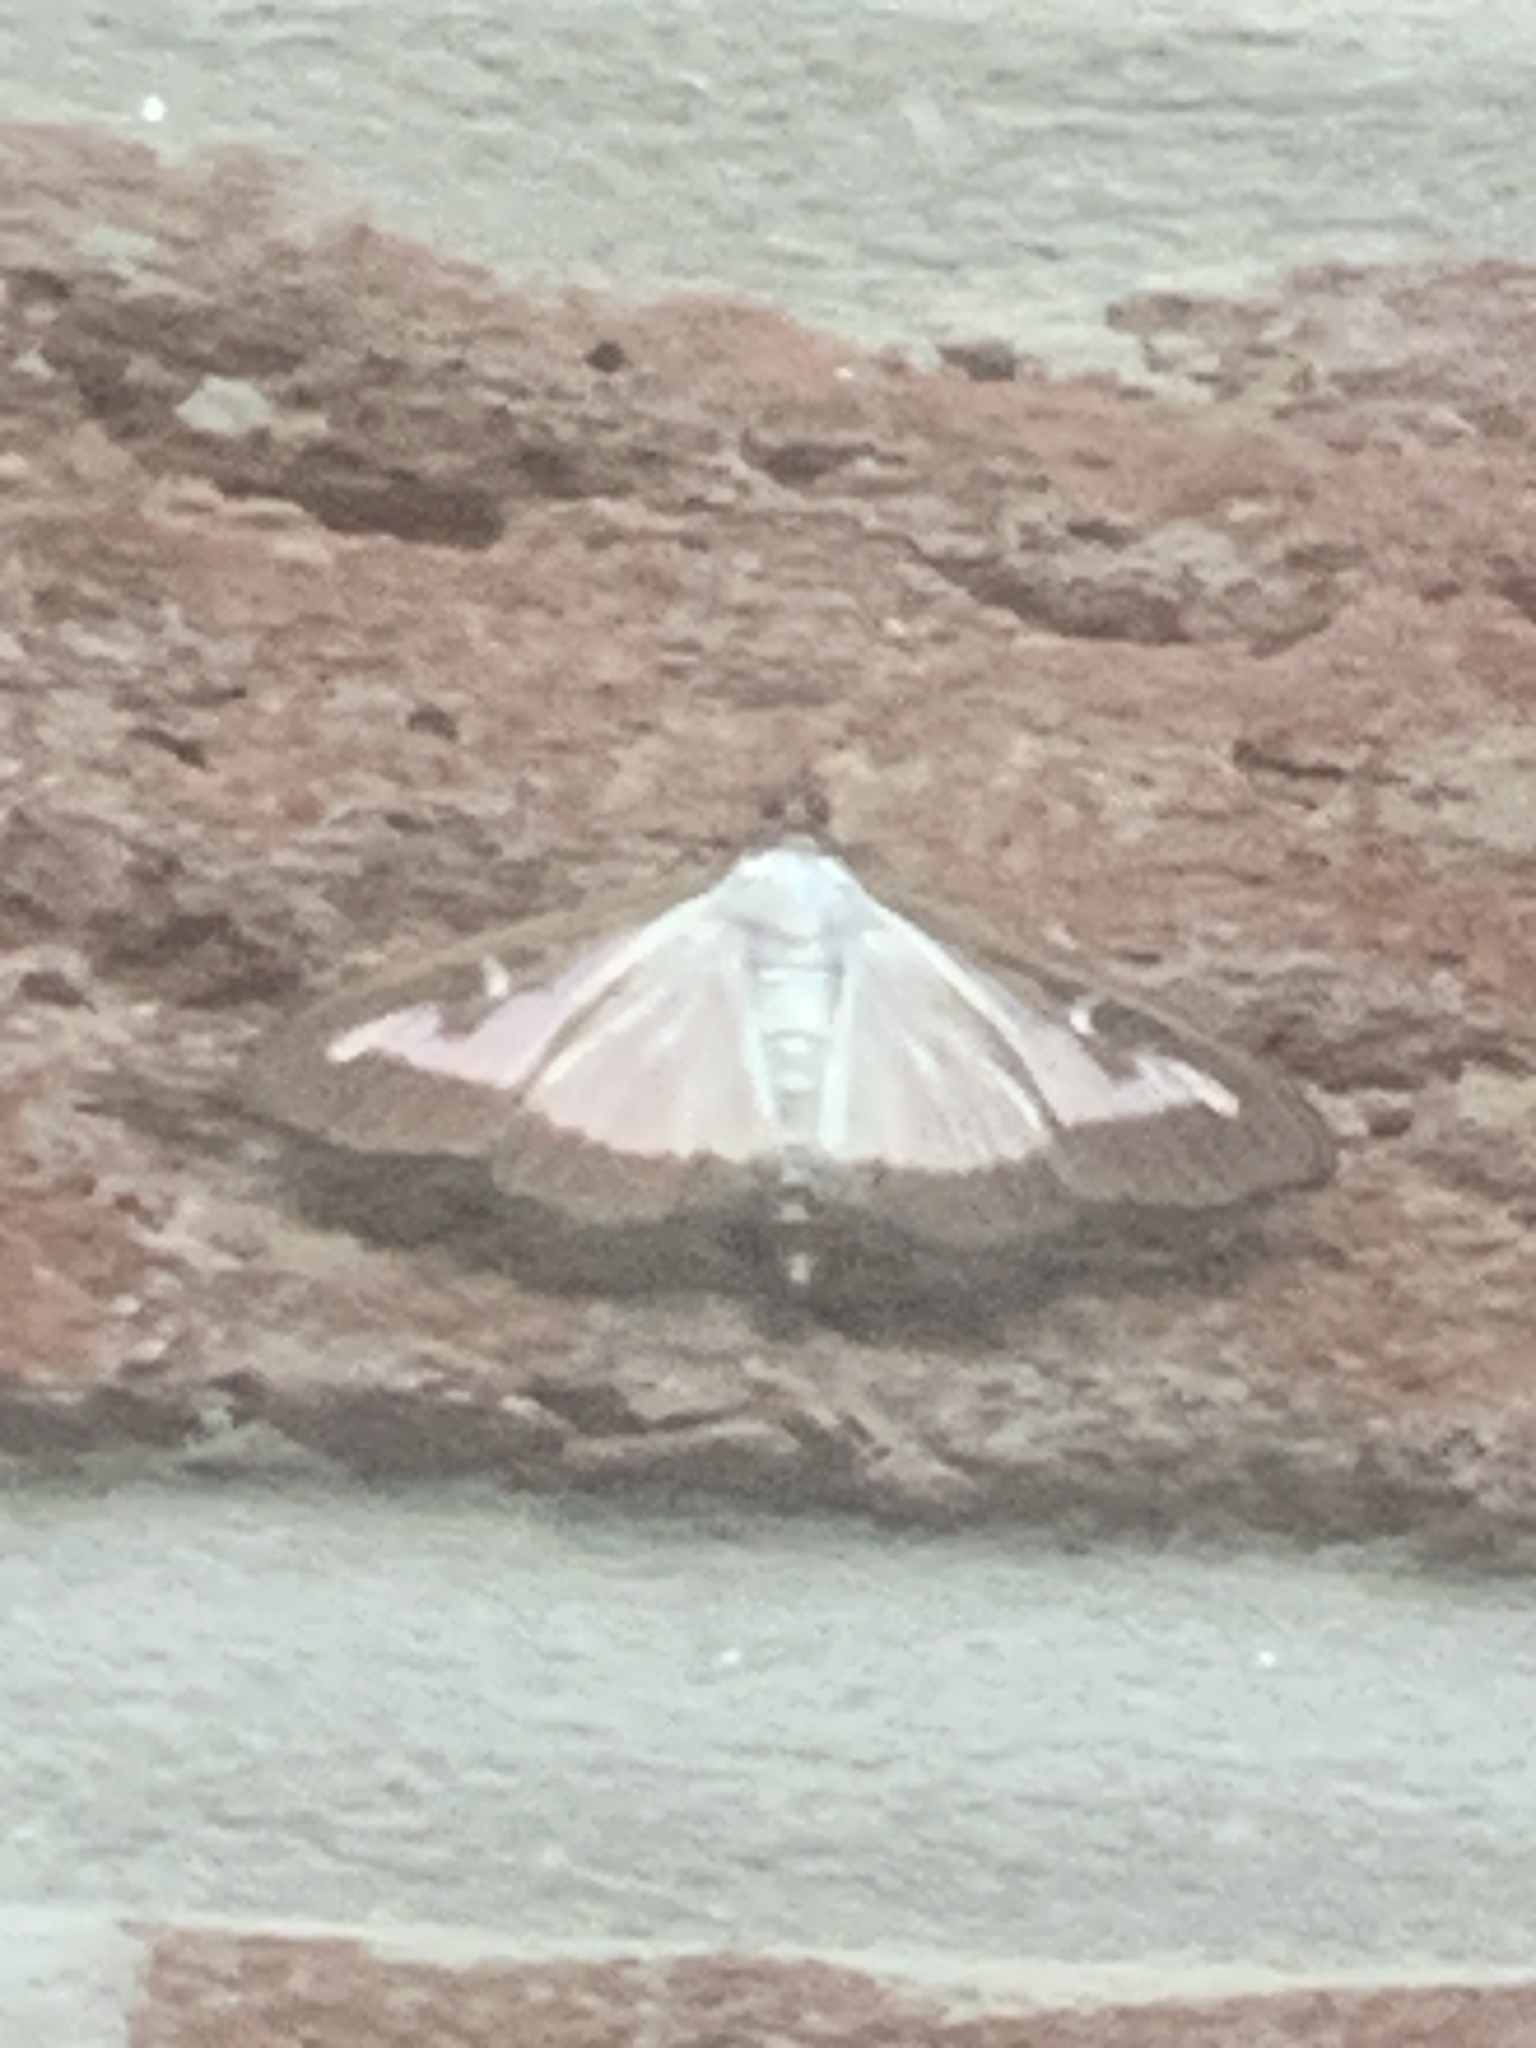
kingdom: Animalia
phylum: Arthropoda
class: Insecta
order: Lepidoptera
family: Crambidae
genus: Cydalima
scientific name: Cydalima perspectalis
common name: Box tree moth
